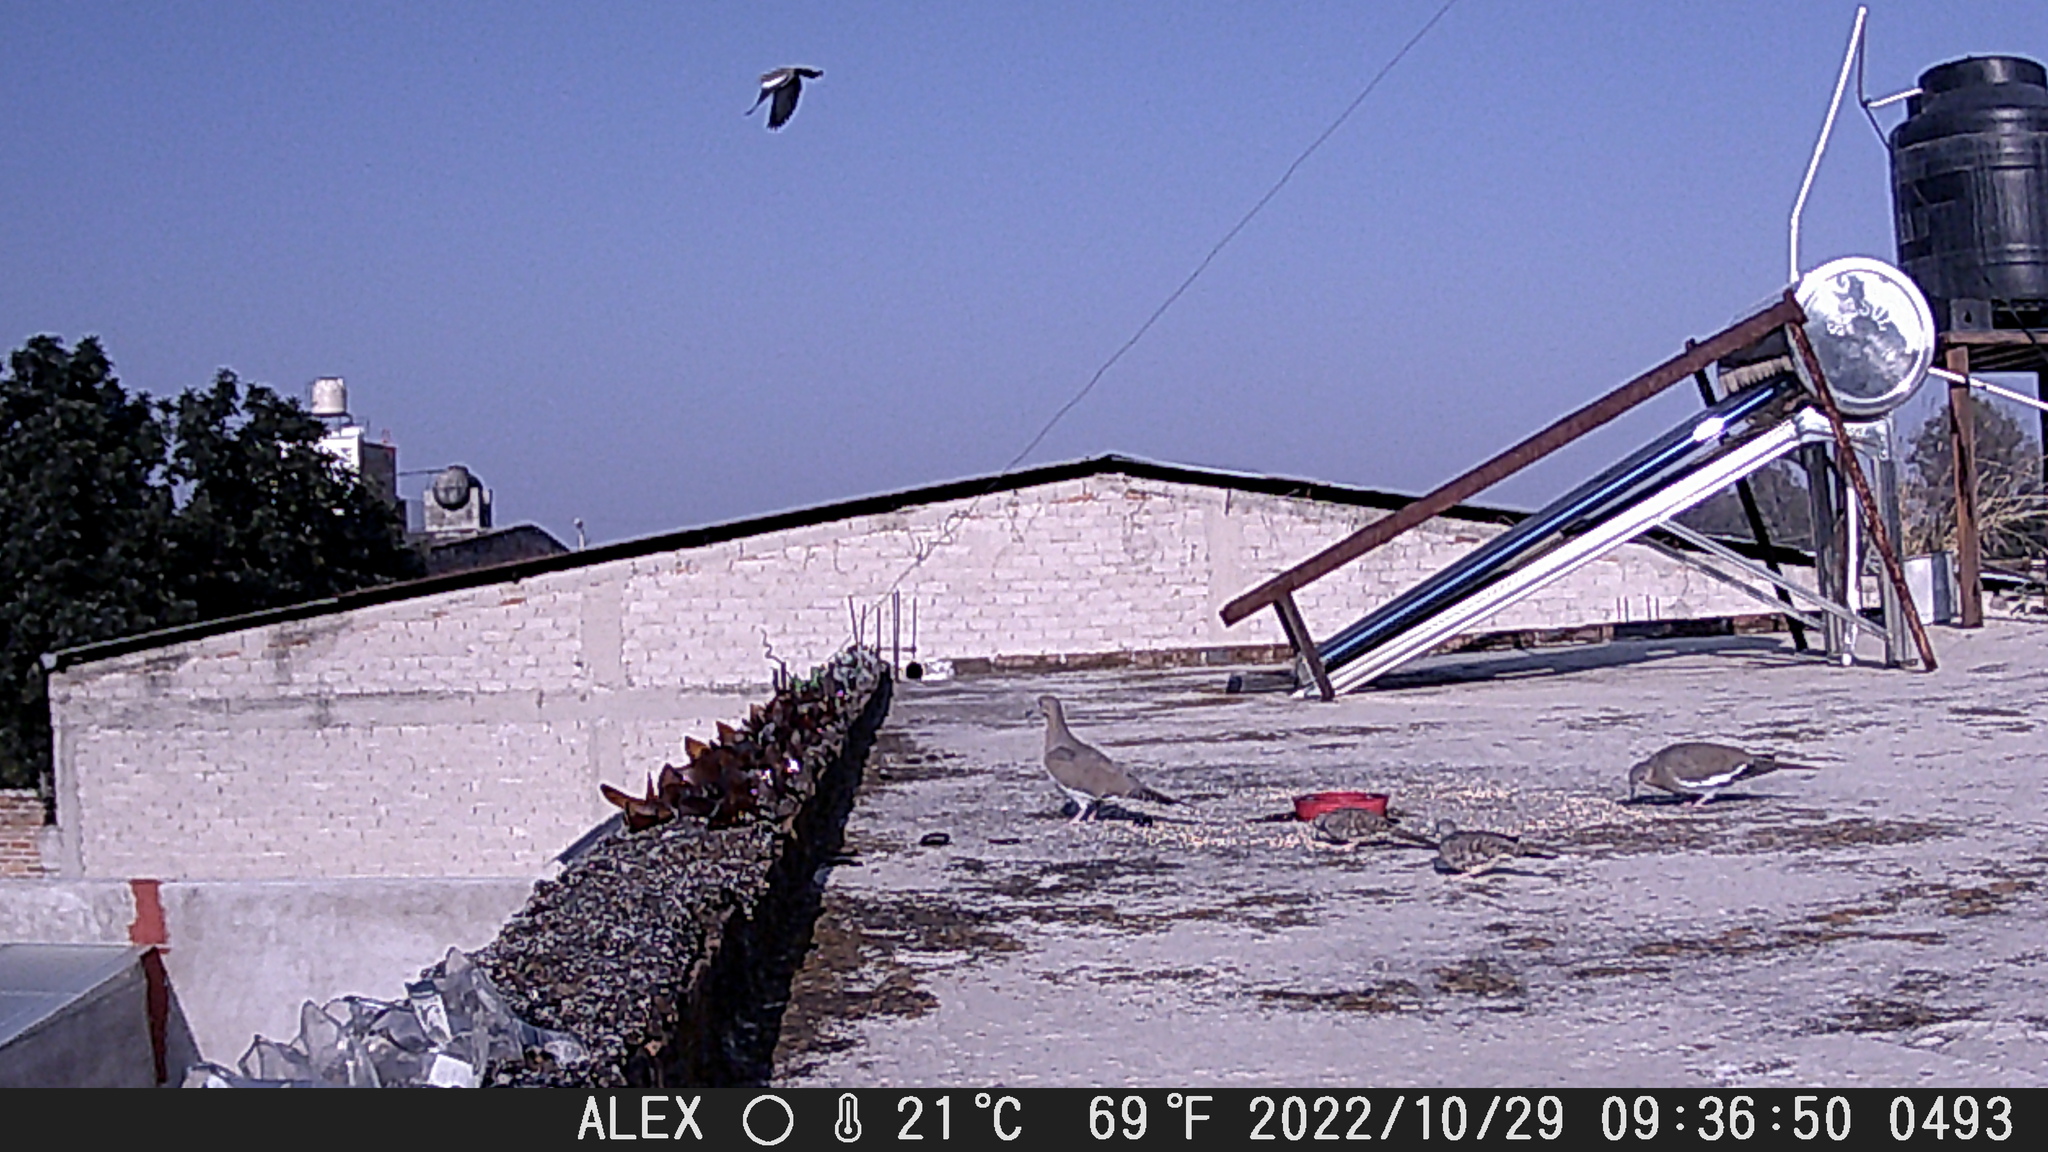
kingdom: Animalia
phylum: Chordata
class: Aves
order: Columbiformes
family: Columbidae
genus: Zenaida
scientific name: Zenaida asiatica
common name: White-winged dove
